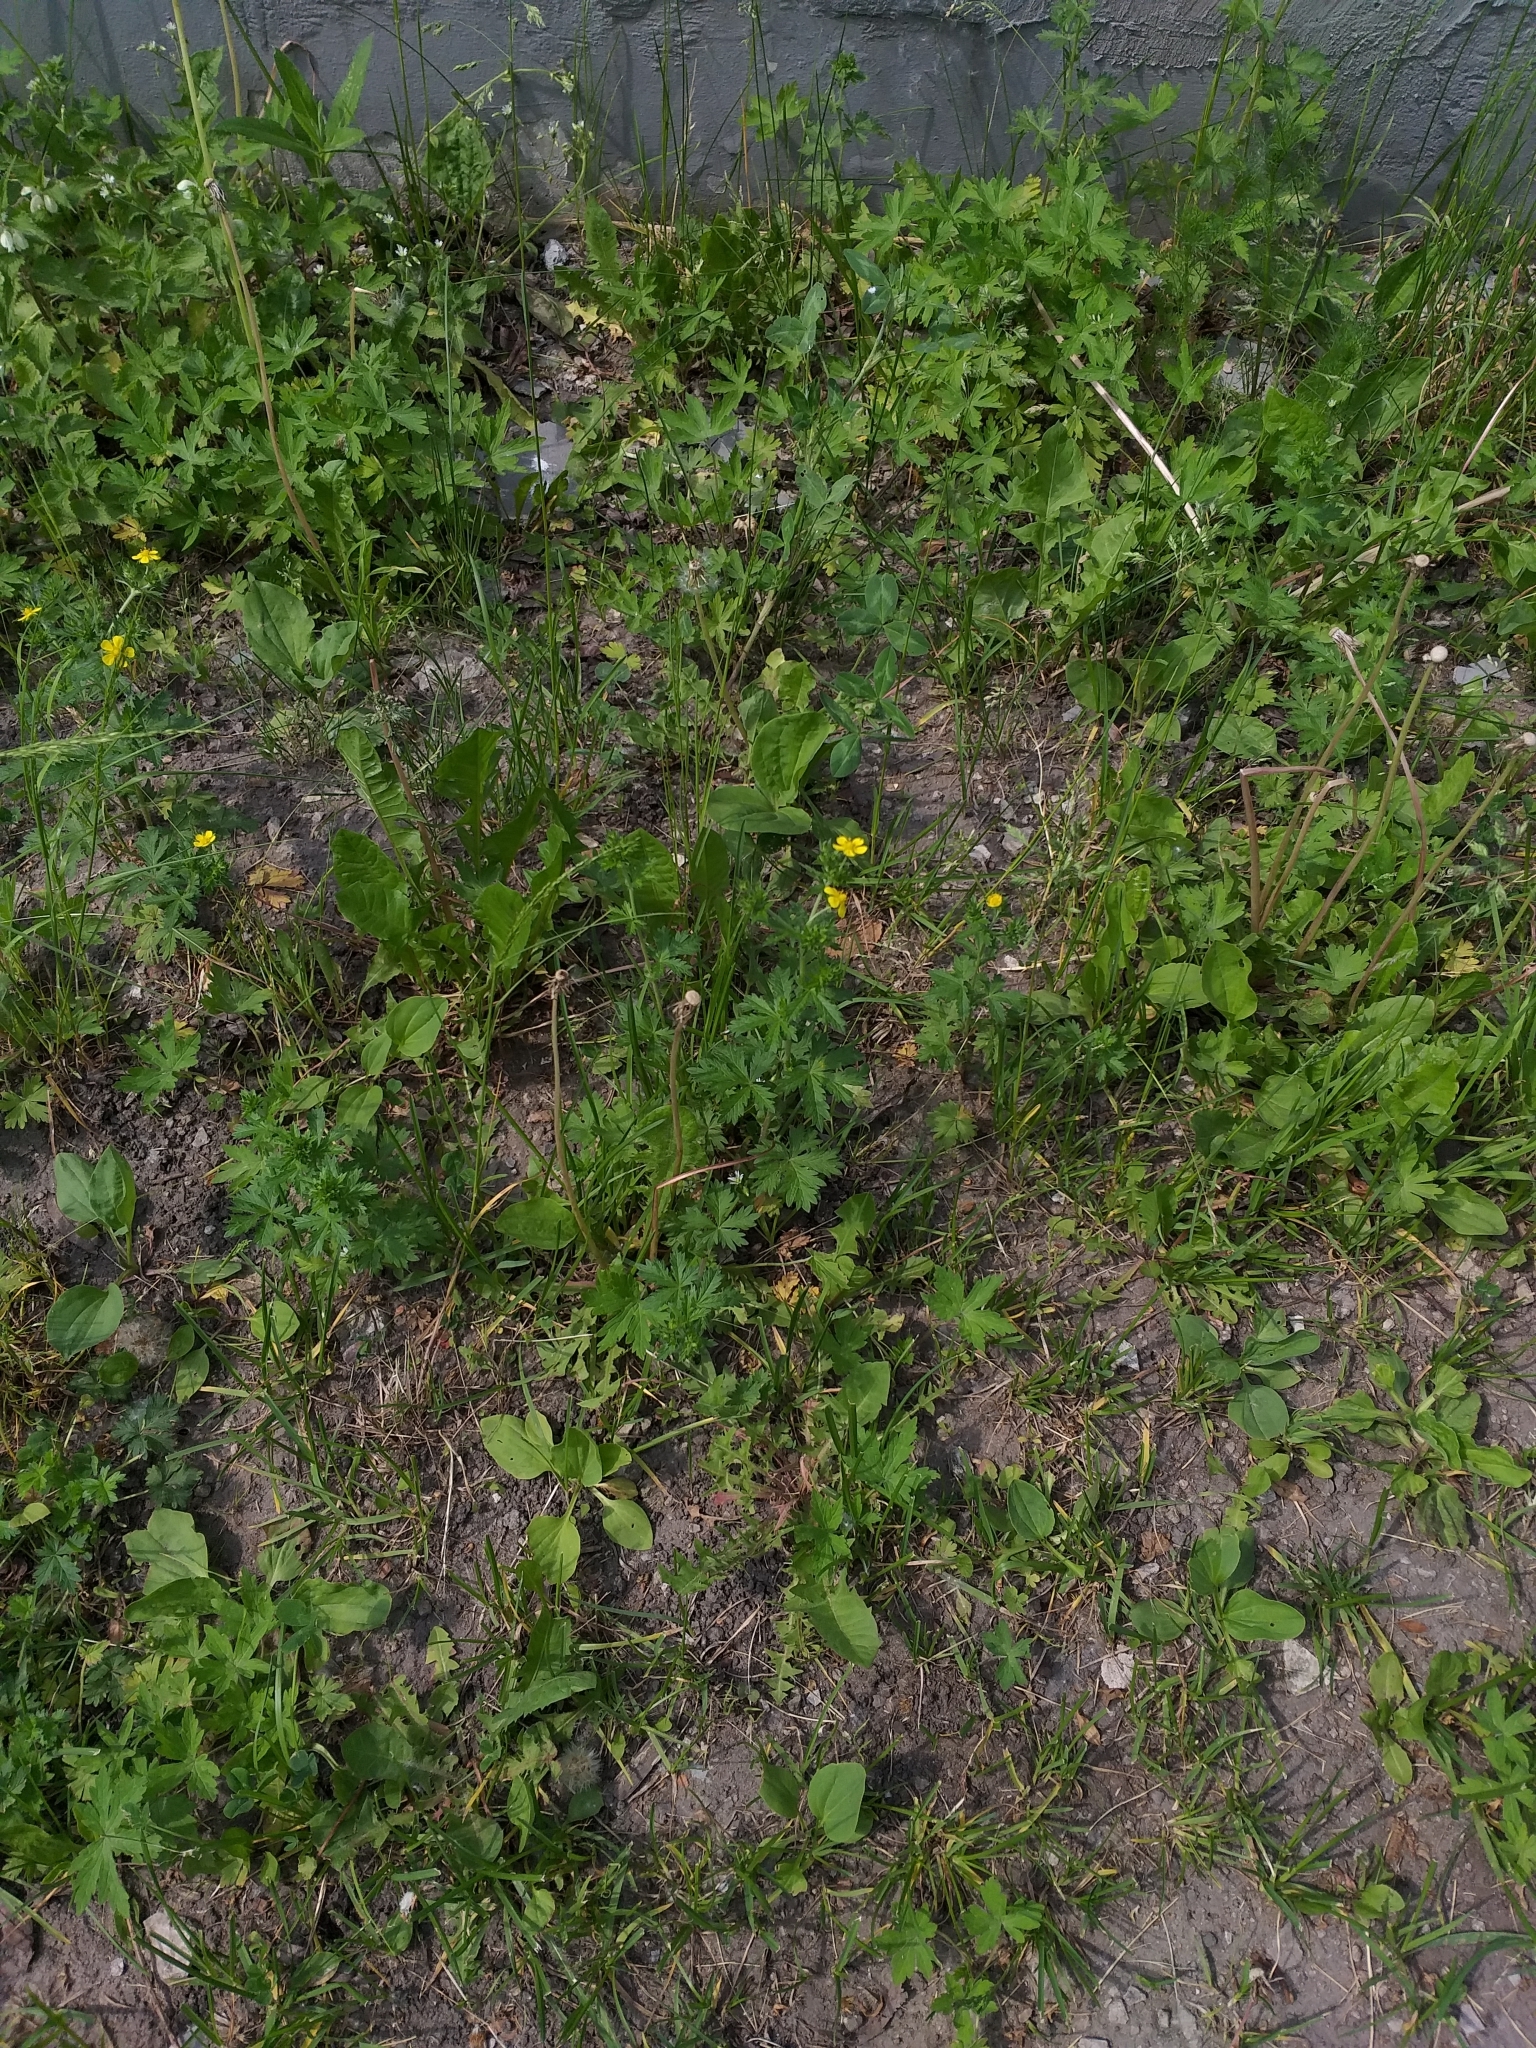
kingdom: Plantae
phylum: Tracheophyta
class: Magnoliopsida
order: Rosales
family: Rosaceae
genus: Potentilla
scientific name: Potentilla intermedia
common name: Downy cinquefoil
